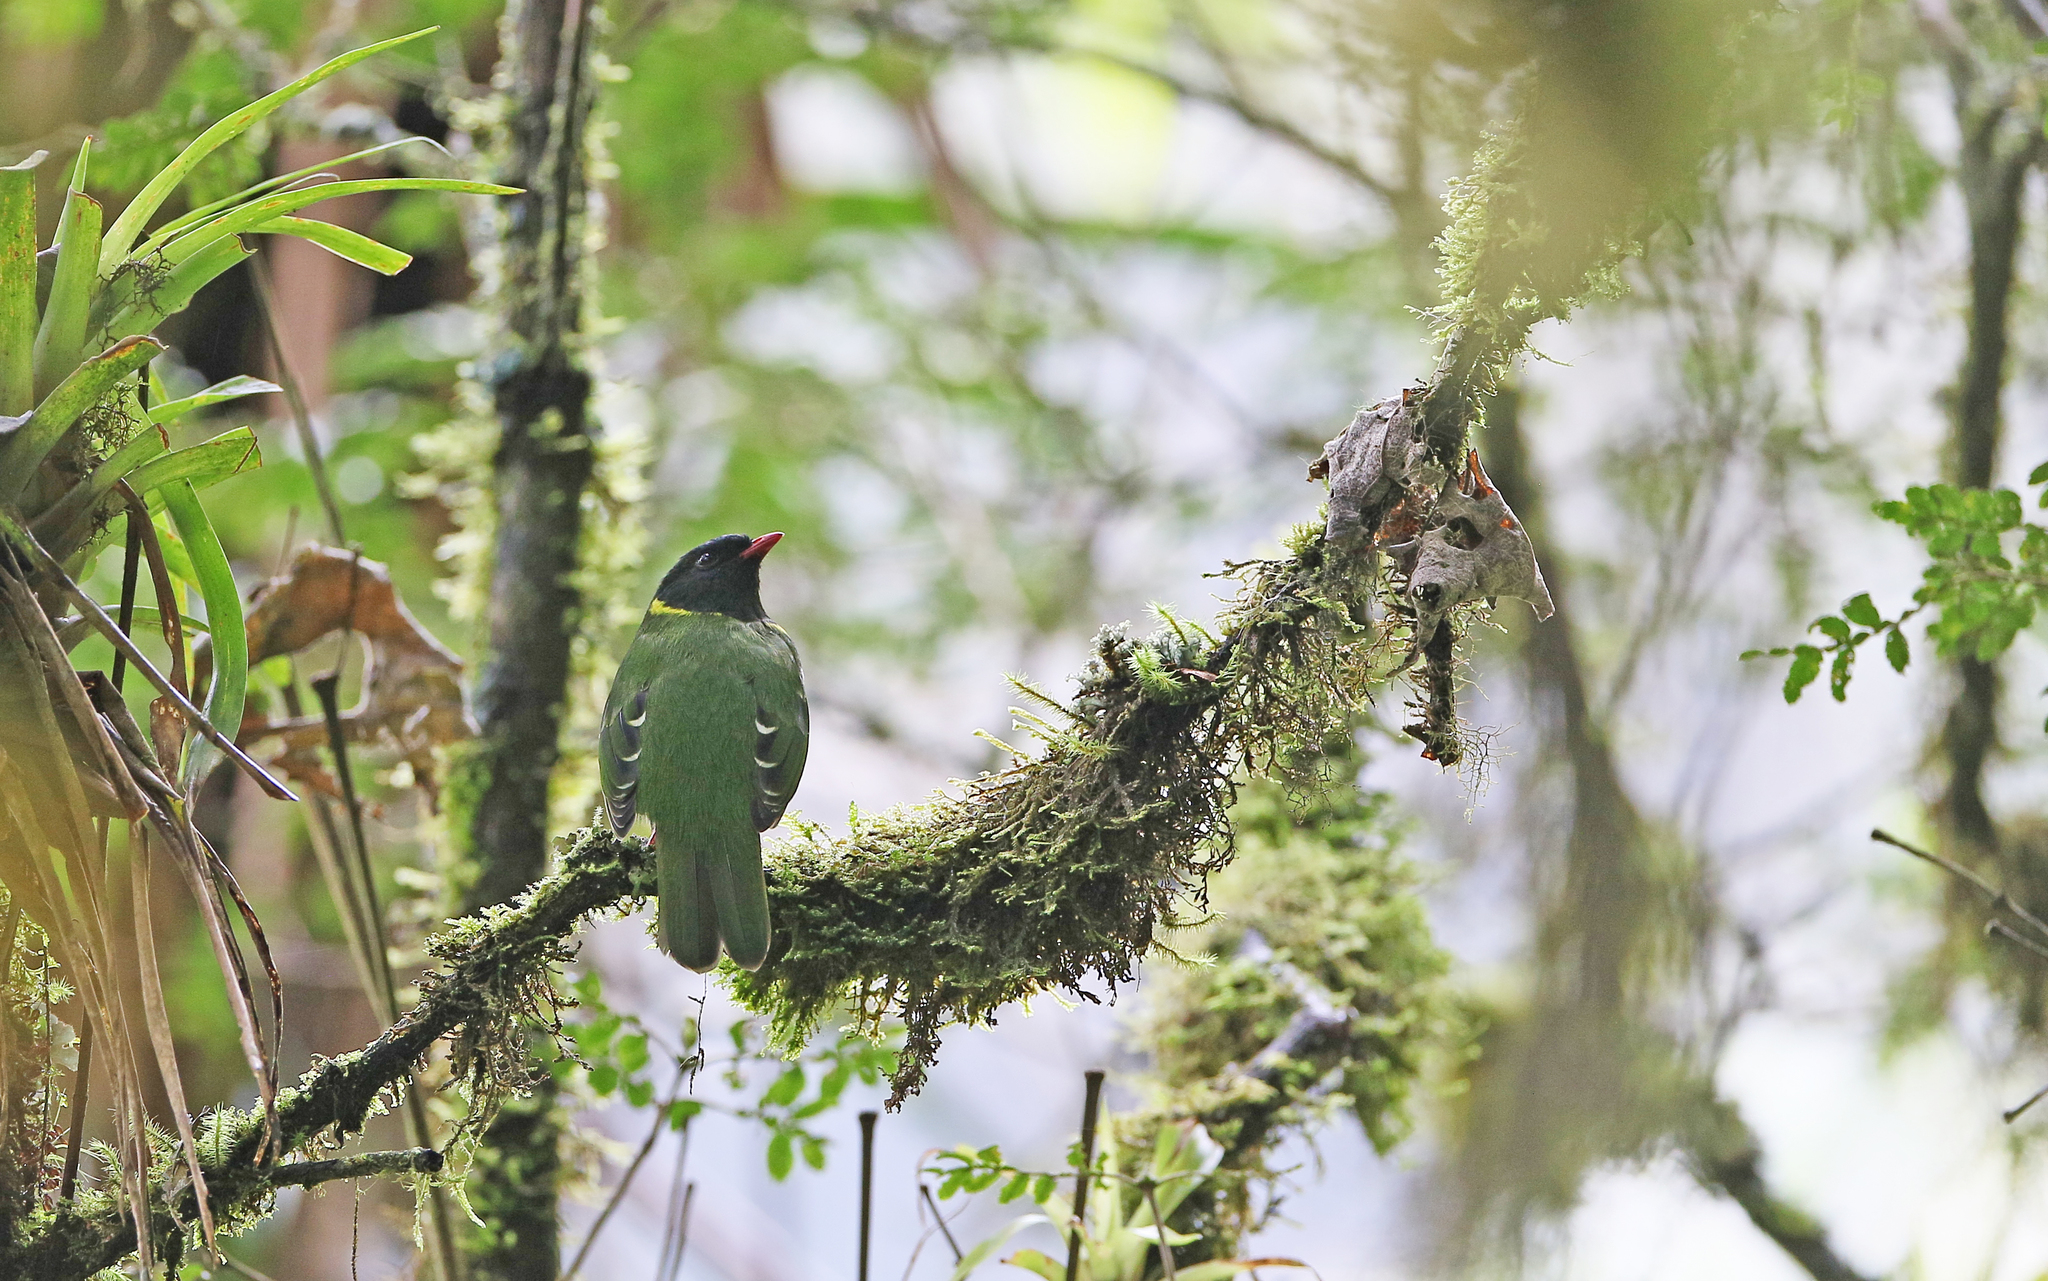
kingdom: Animalia
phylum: Chordata
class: Aves
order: Passeriformes
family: Cotingidae
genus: Pipreola
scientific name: Pipreola riefferii
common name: Green-and-black fruiteater
